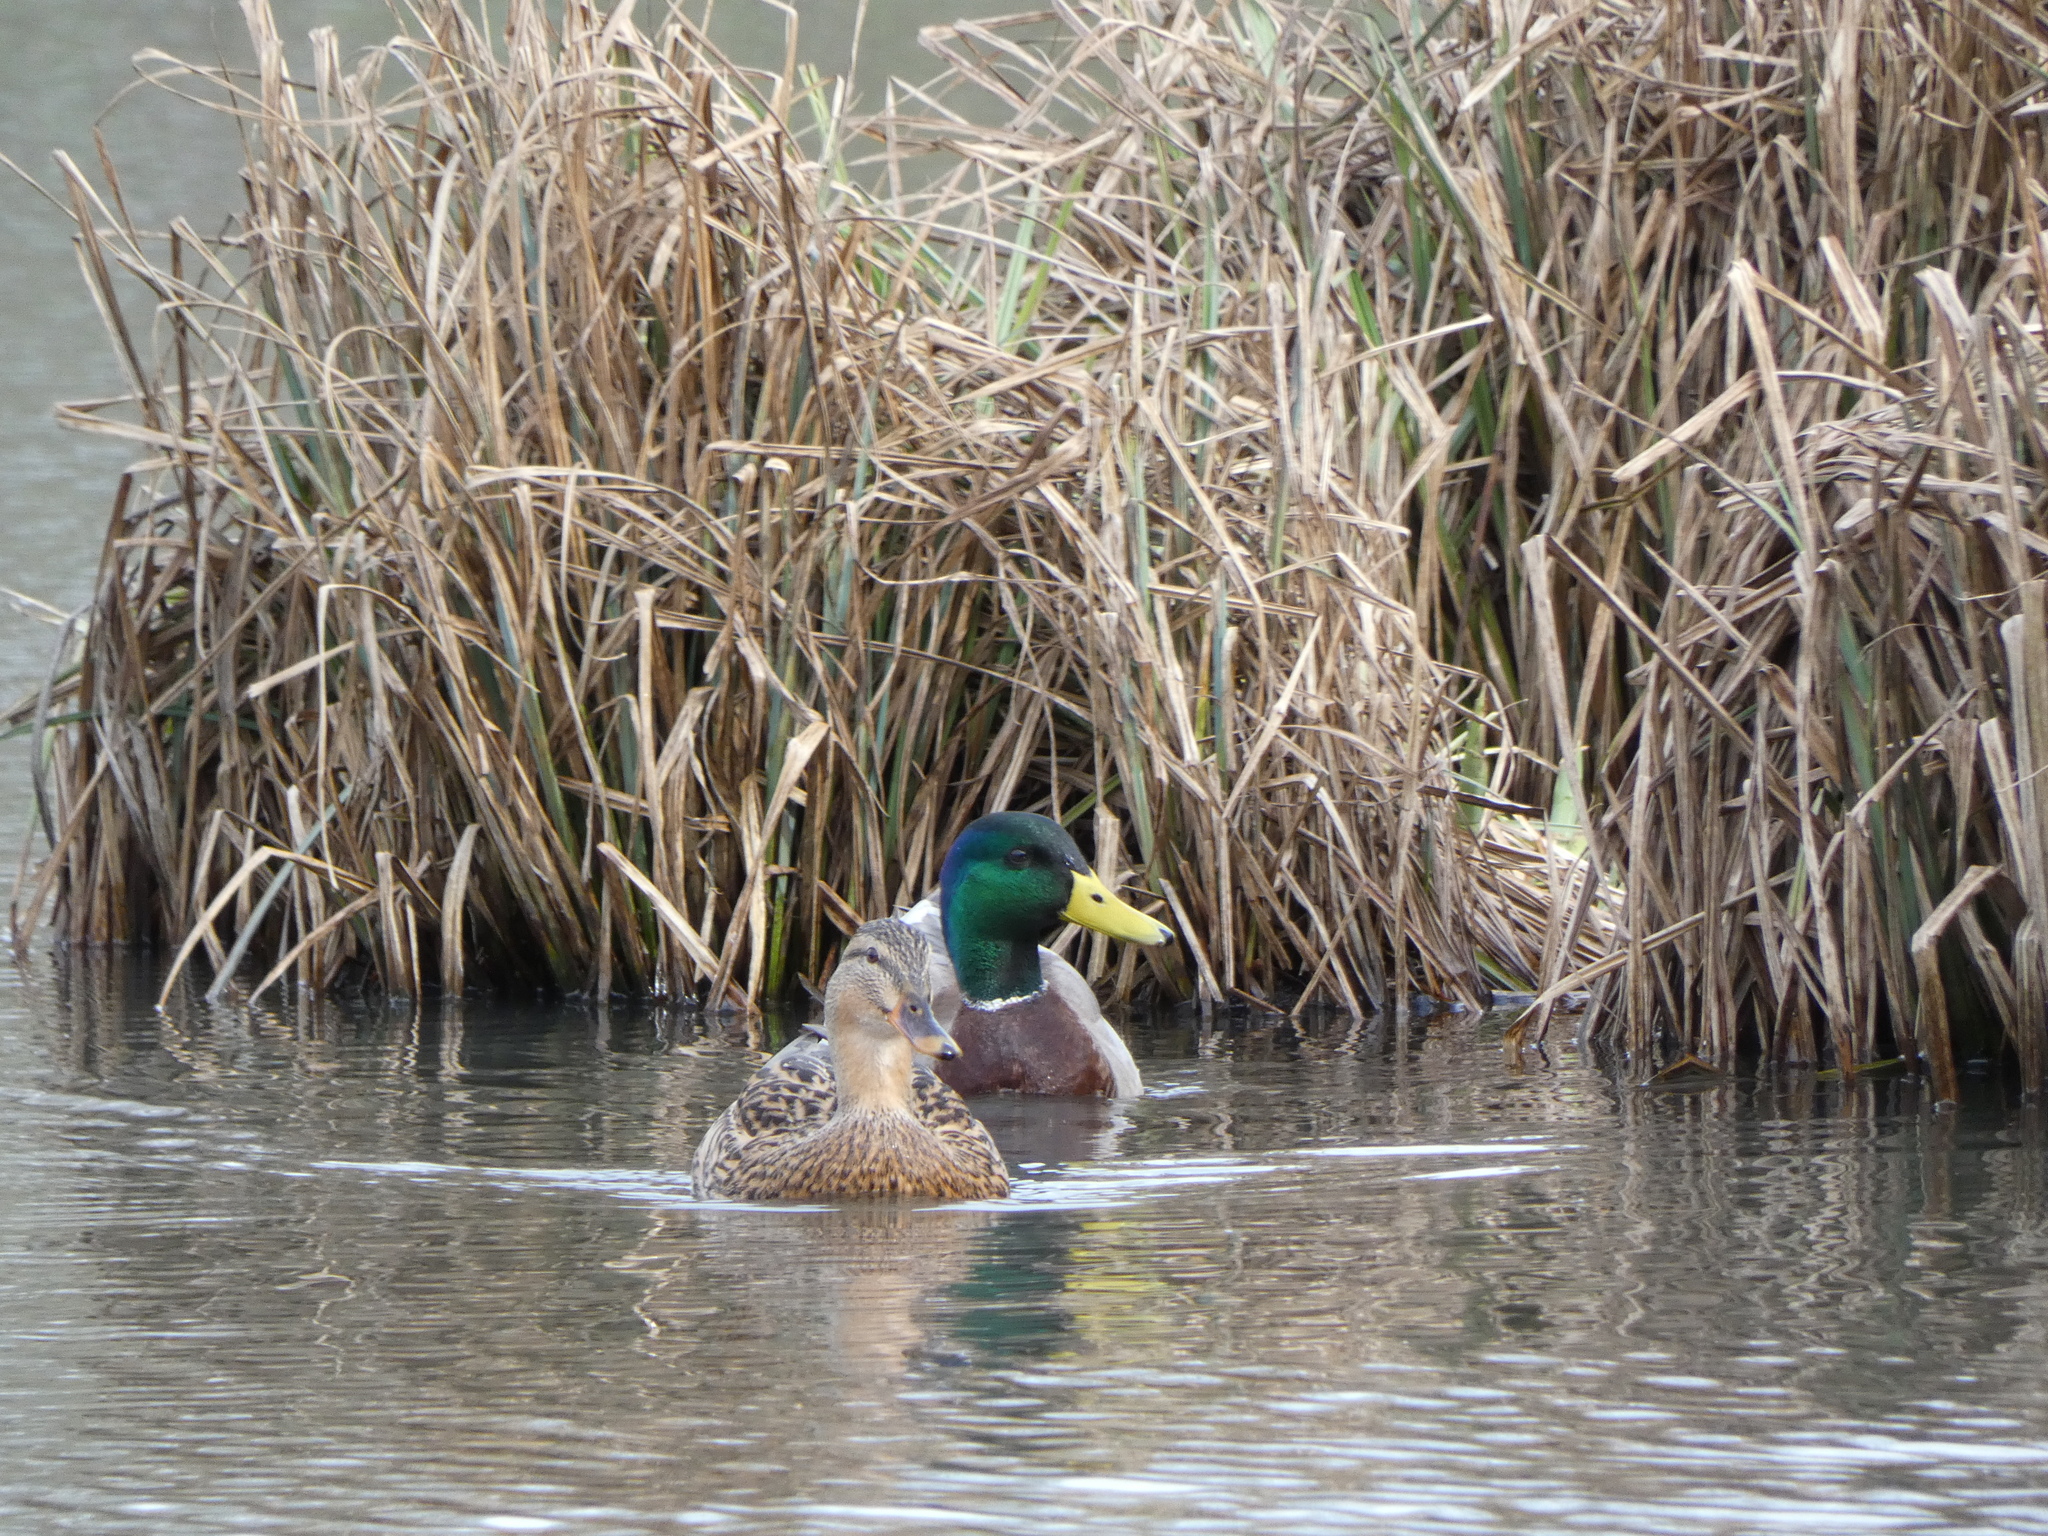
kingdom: Animalia
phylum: Chordata
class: Aves
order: Anseriformes
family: Anatidae
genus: Anas
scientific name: Anas platyrhynchos
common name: Mallard
